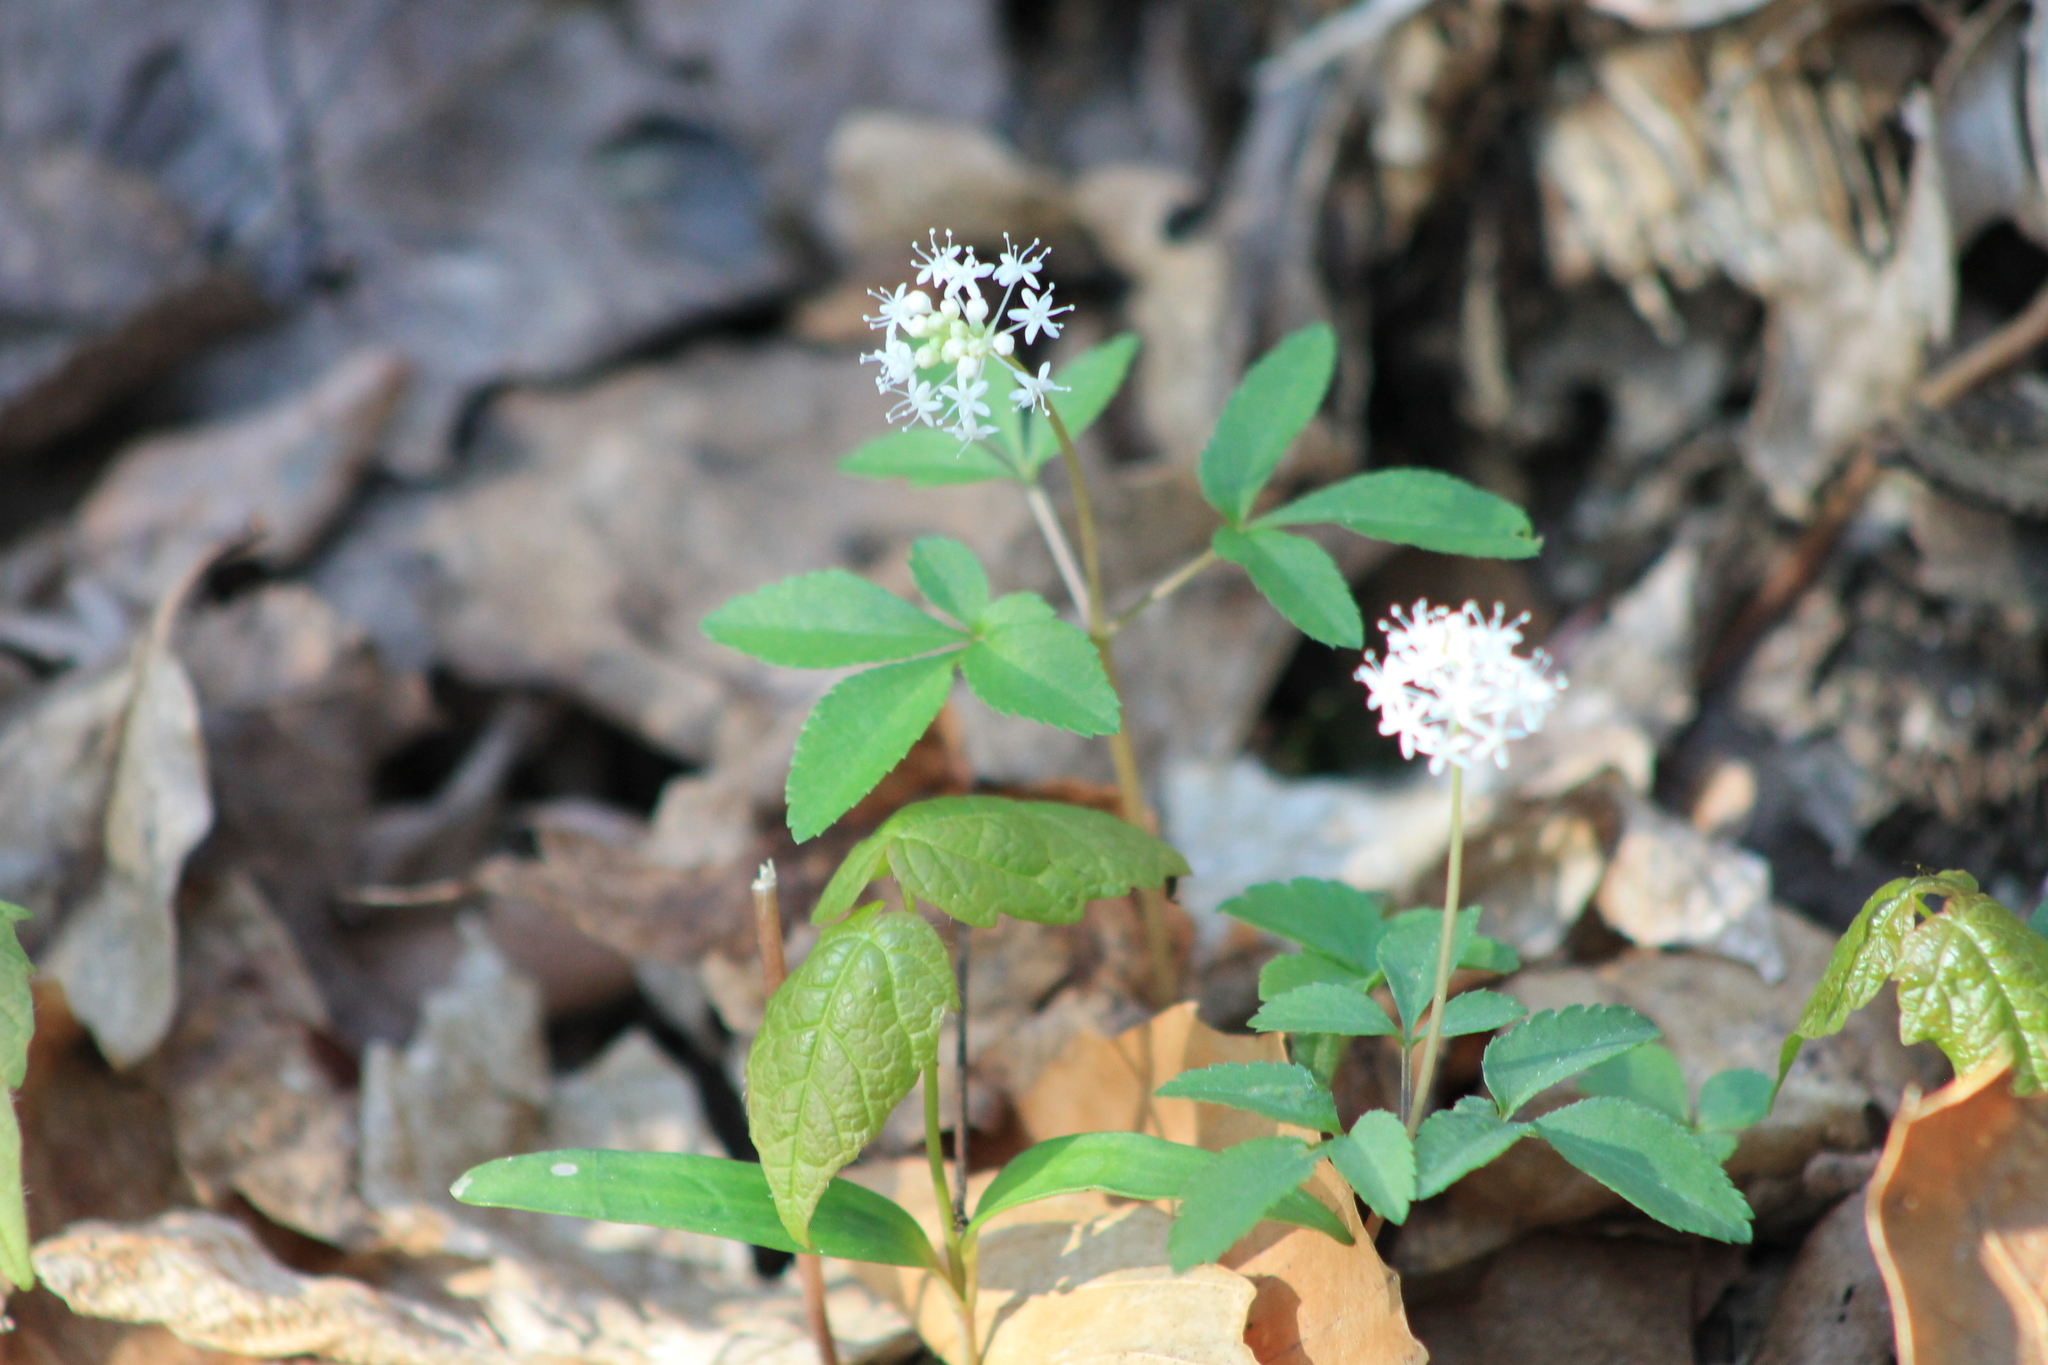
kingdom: Plantae
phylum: Tracheophyta
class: Magnoliopsida
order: Apiales
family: Araliaceae
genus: Panax
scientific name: Panax trifolius
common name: Dwarf ginseng
